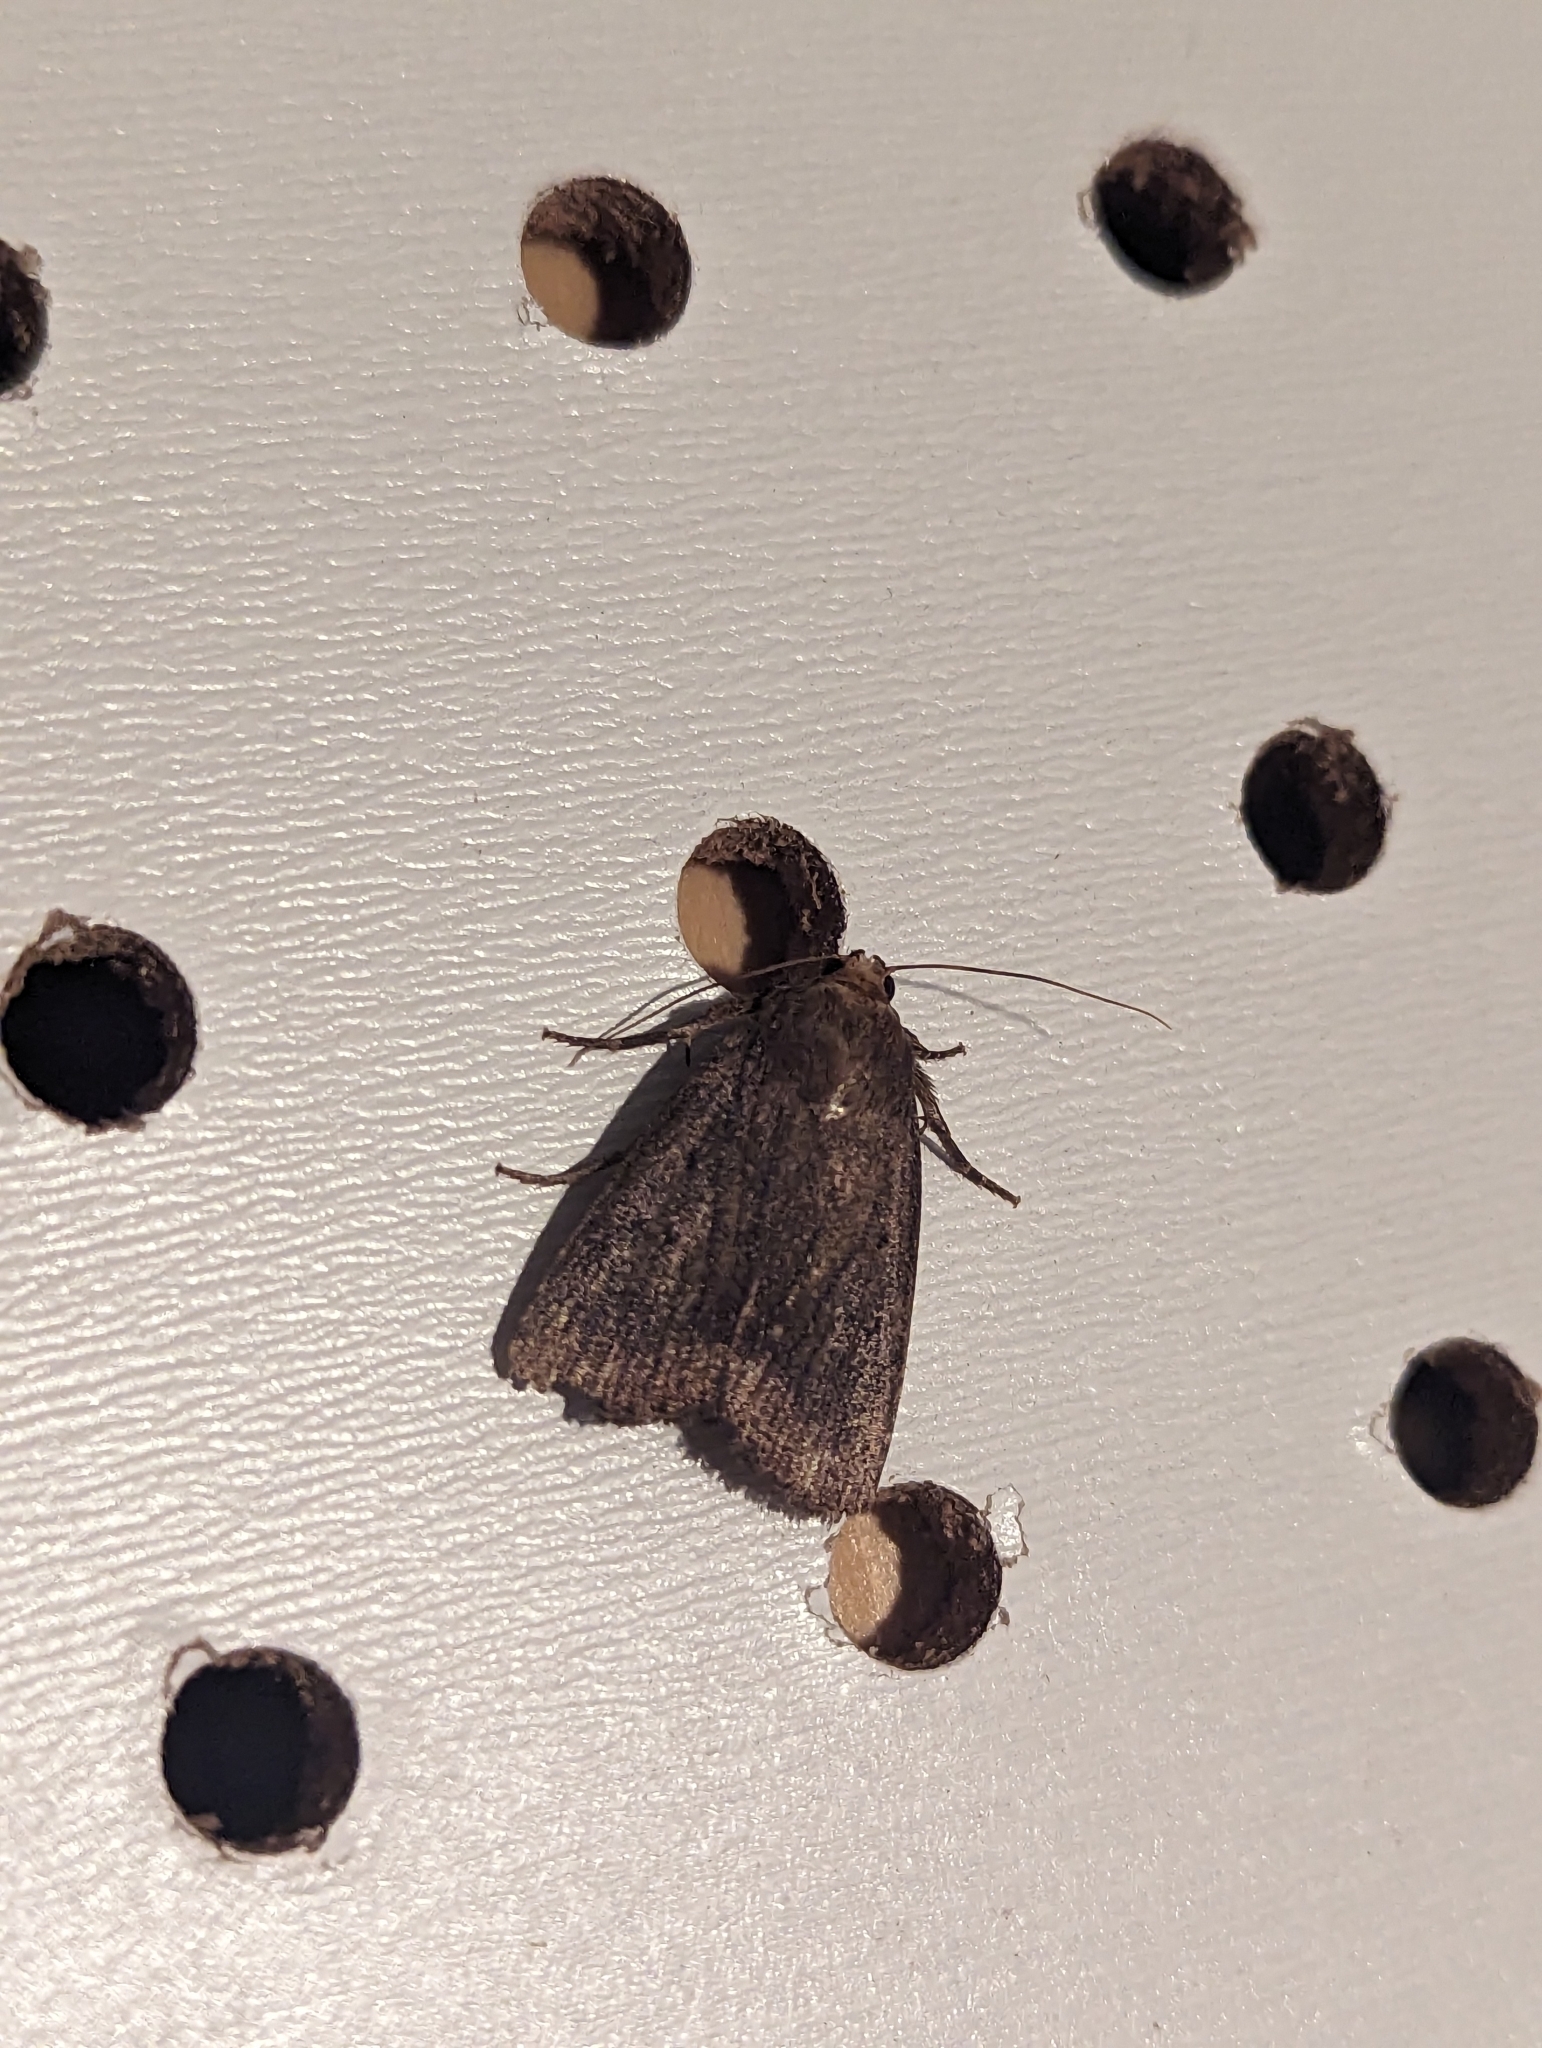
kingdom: Animalia
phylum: Arthropoda
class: Insecta
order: Lepidoptera
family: Noctuidae
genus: Amphipyra
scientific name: Amphipyra tragopoginis
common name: Mouse moth
